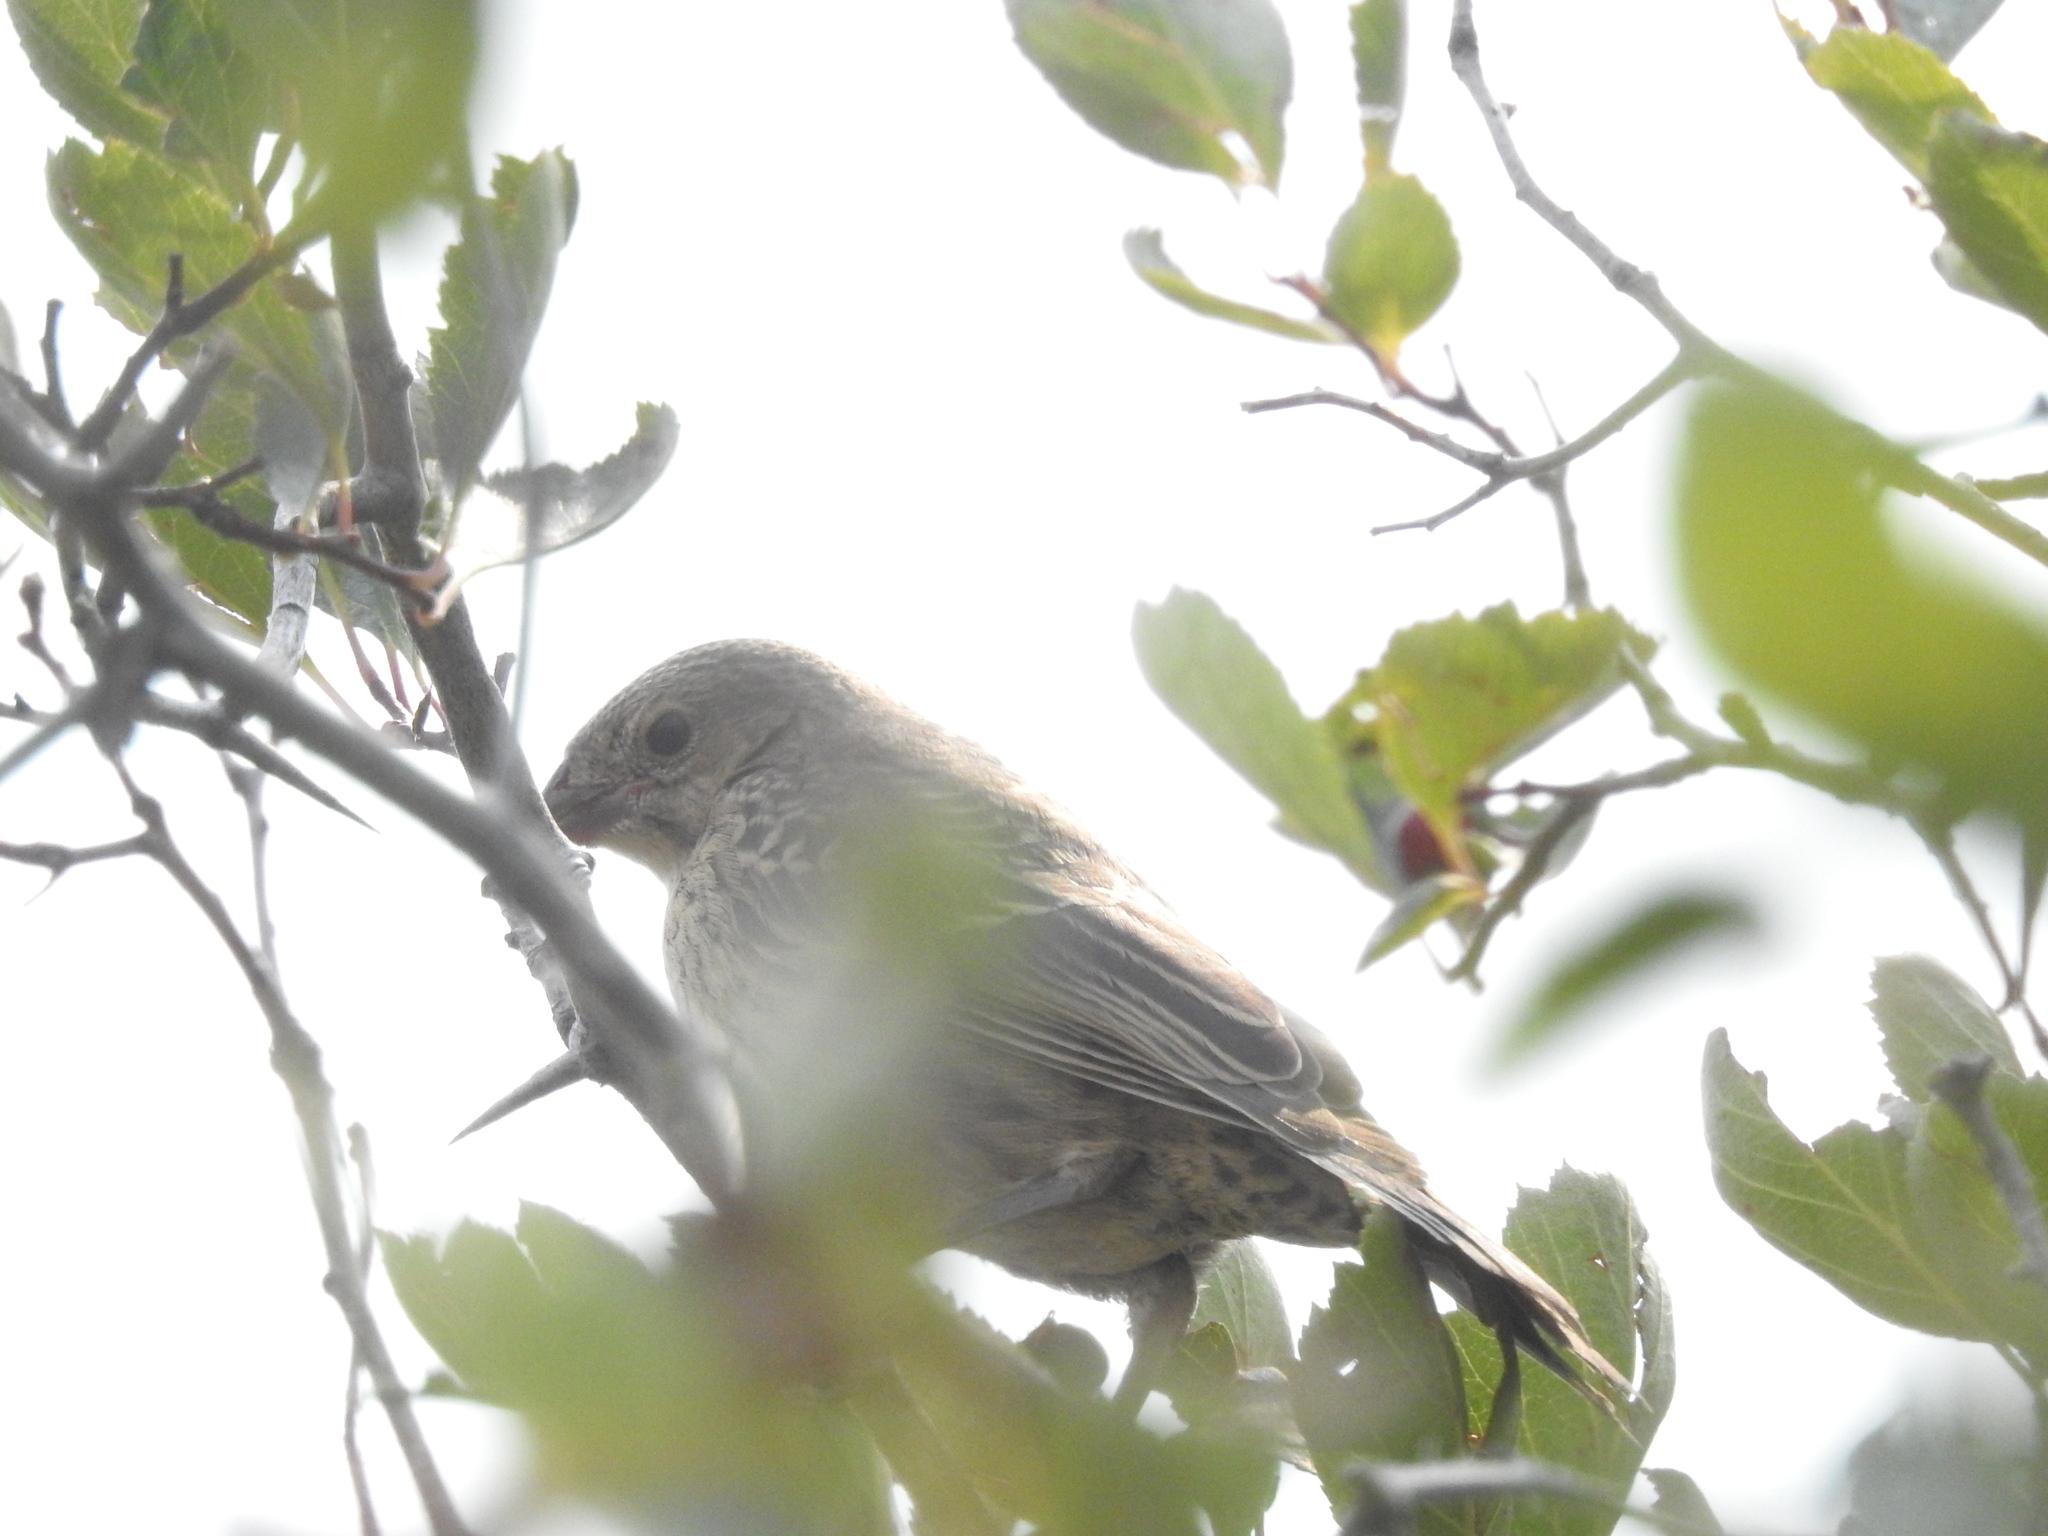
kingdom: Animalia
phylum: Chordata
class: Aves
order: Passeriformes
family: Icteridae
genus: Molothrus
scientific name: Molothrus ater
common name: Brown-headed cowbird
